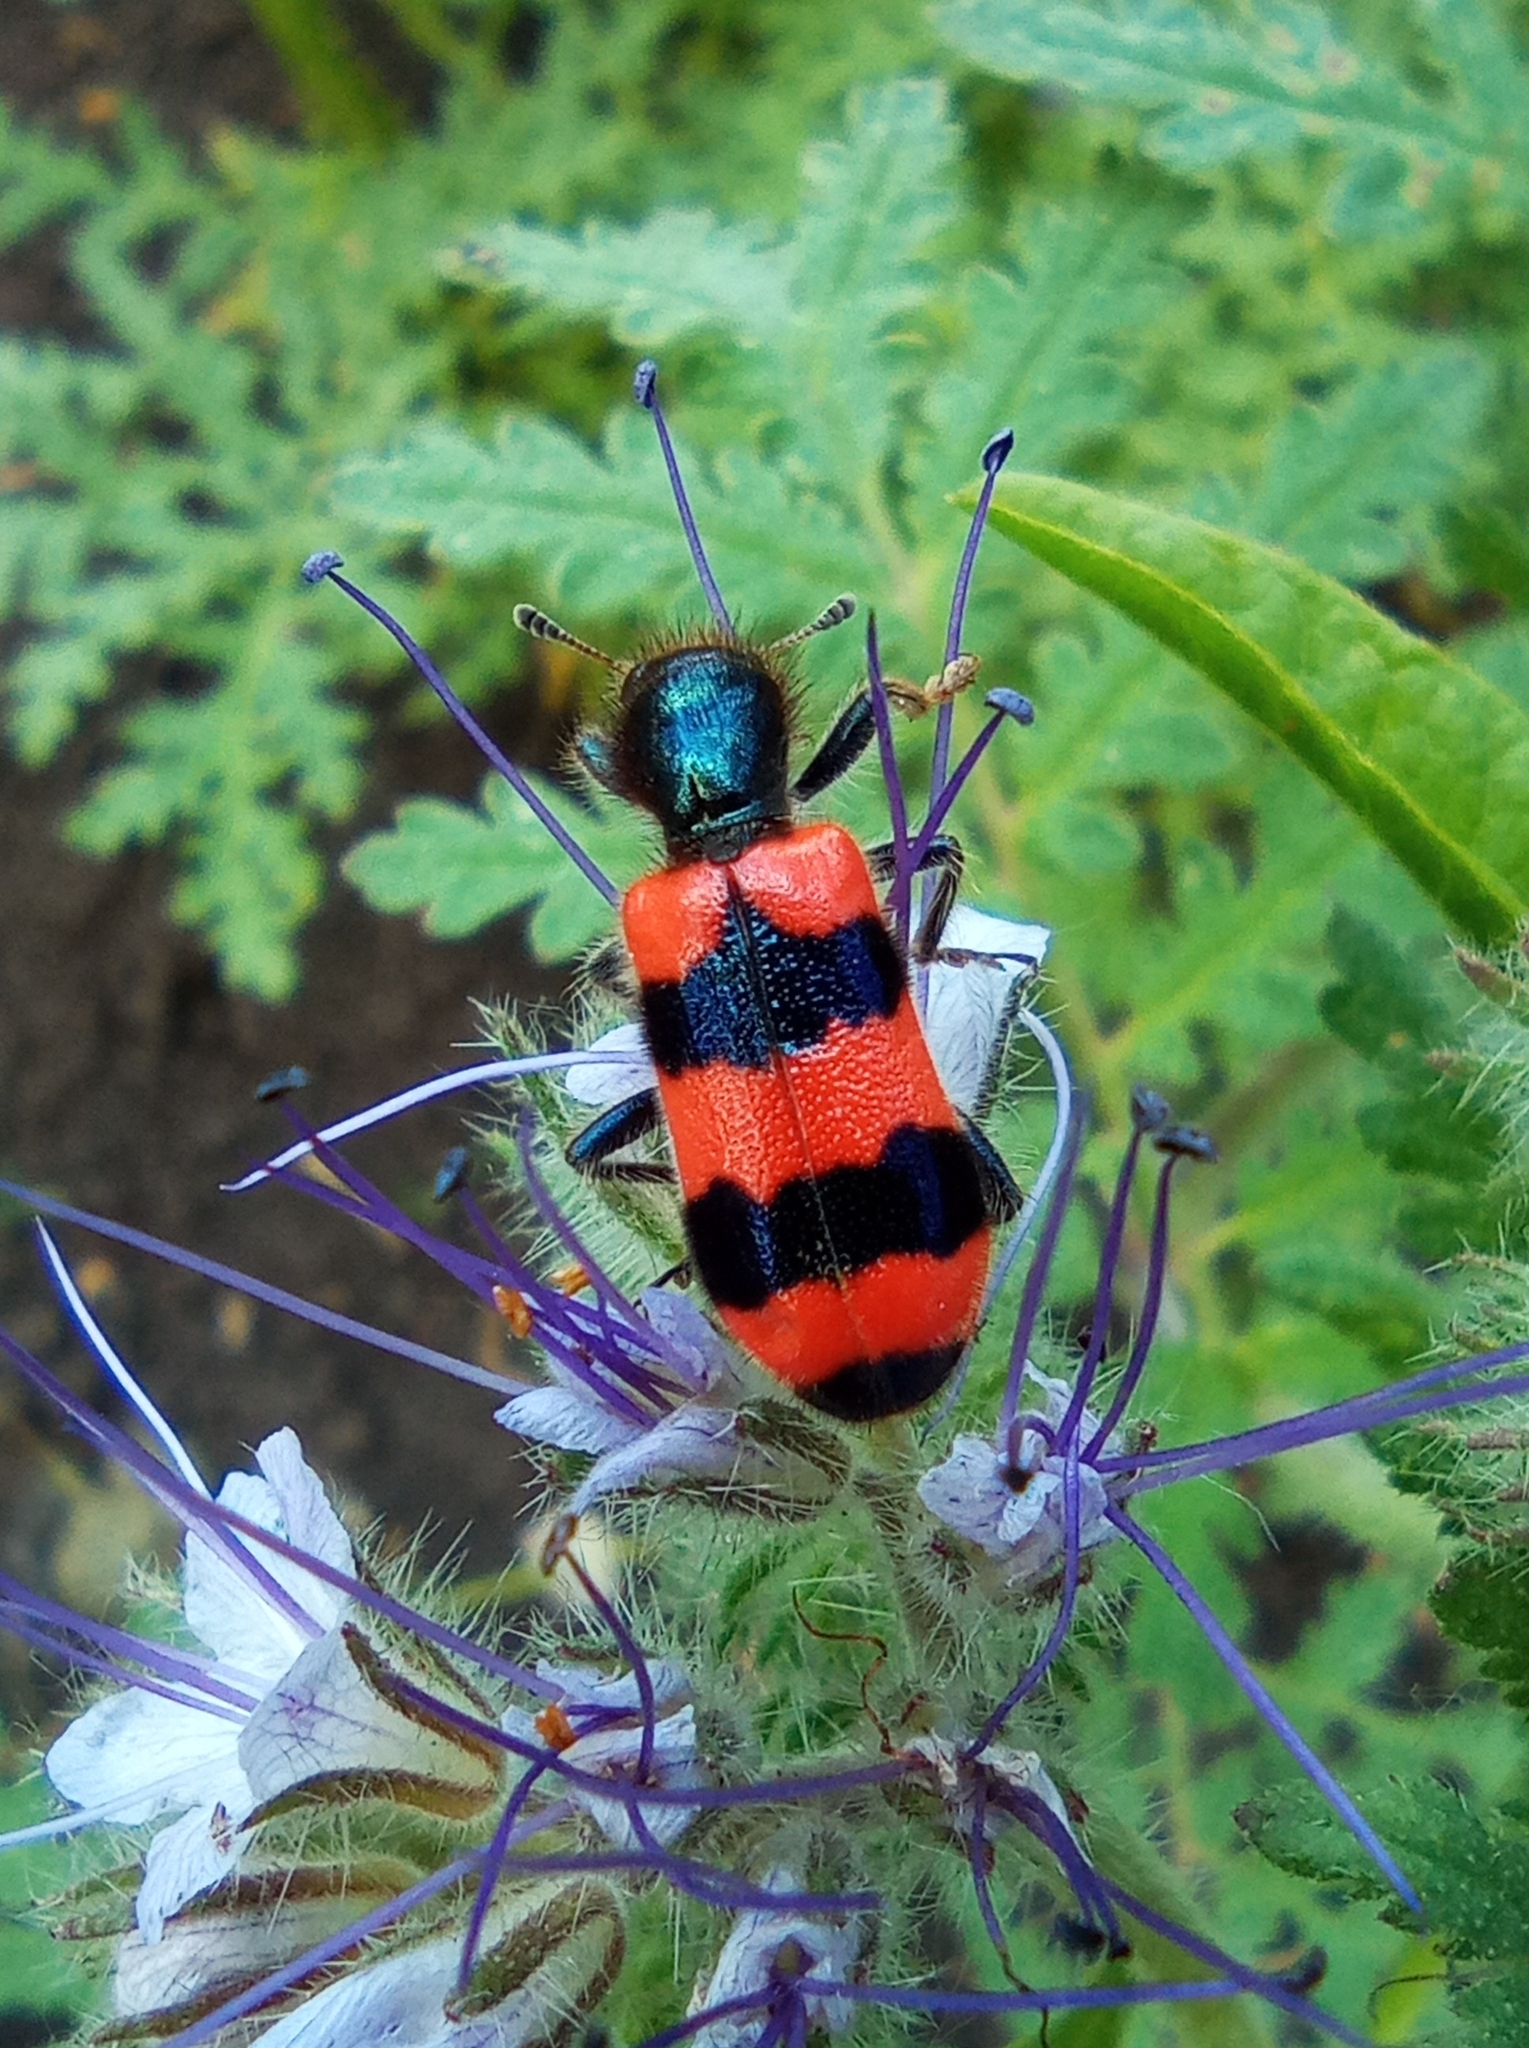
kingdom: Animalia
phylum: Arthropoda
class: Insecta
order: Coleoptera
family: Cleridae
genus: Trichodes
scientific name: Trichodes apiarius
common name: Bee-eating beetle
